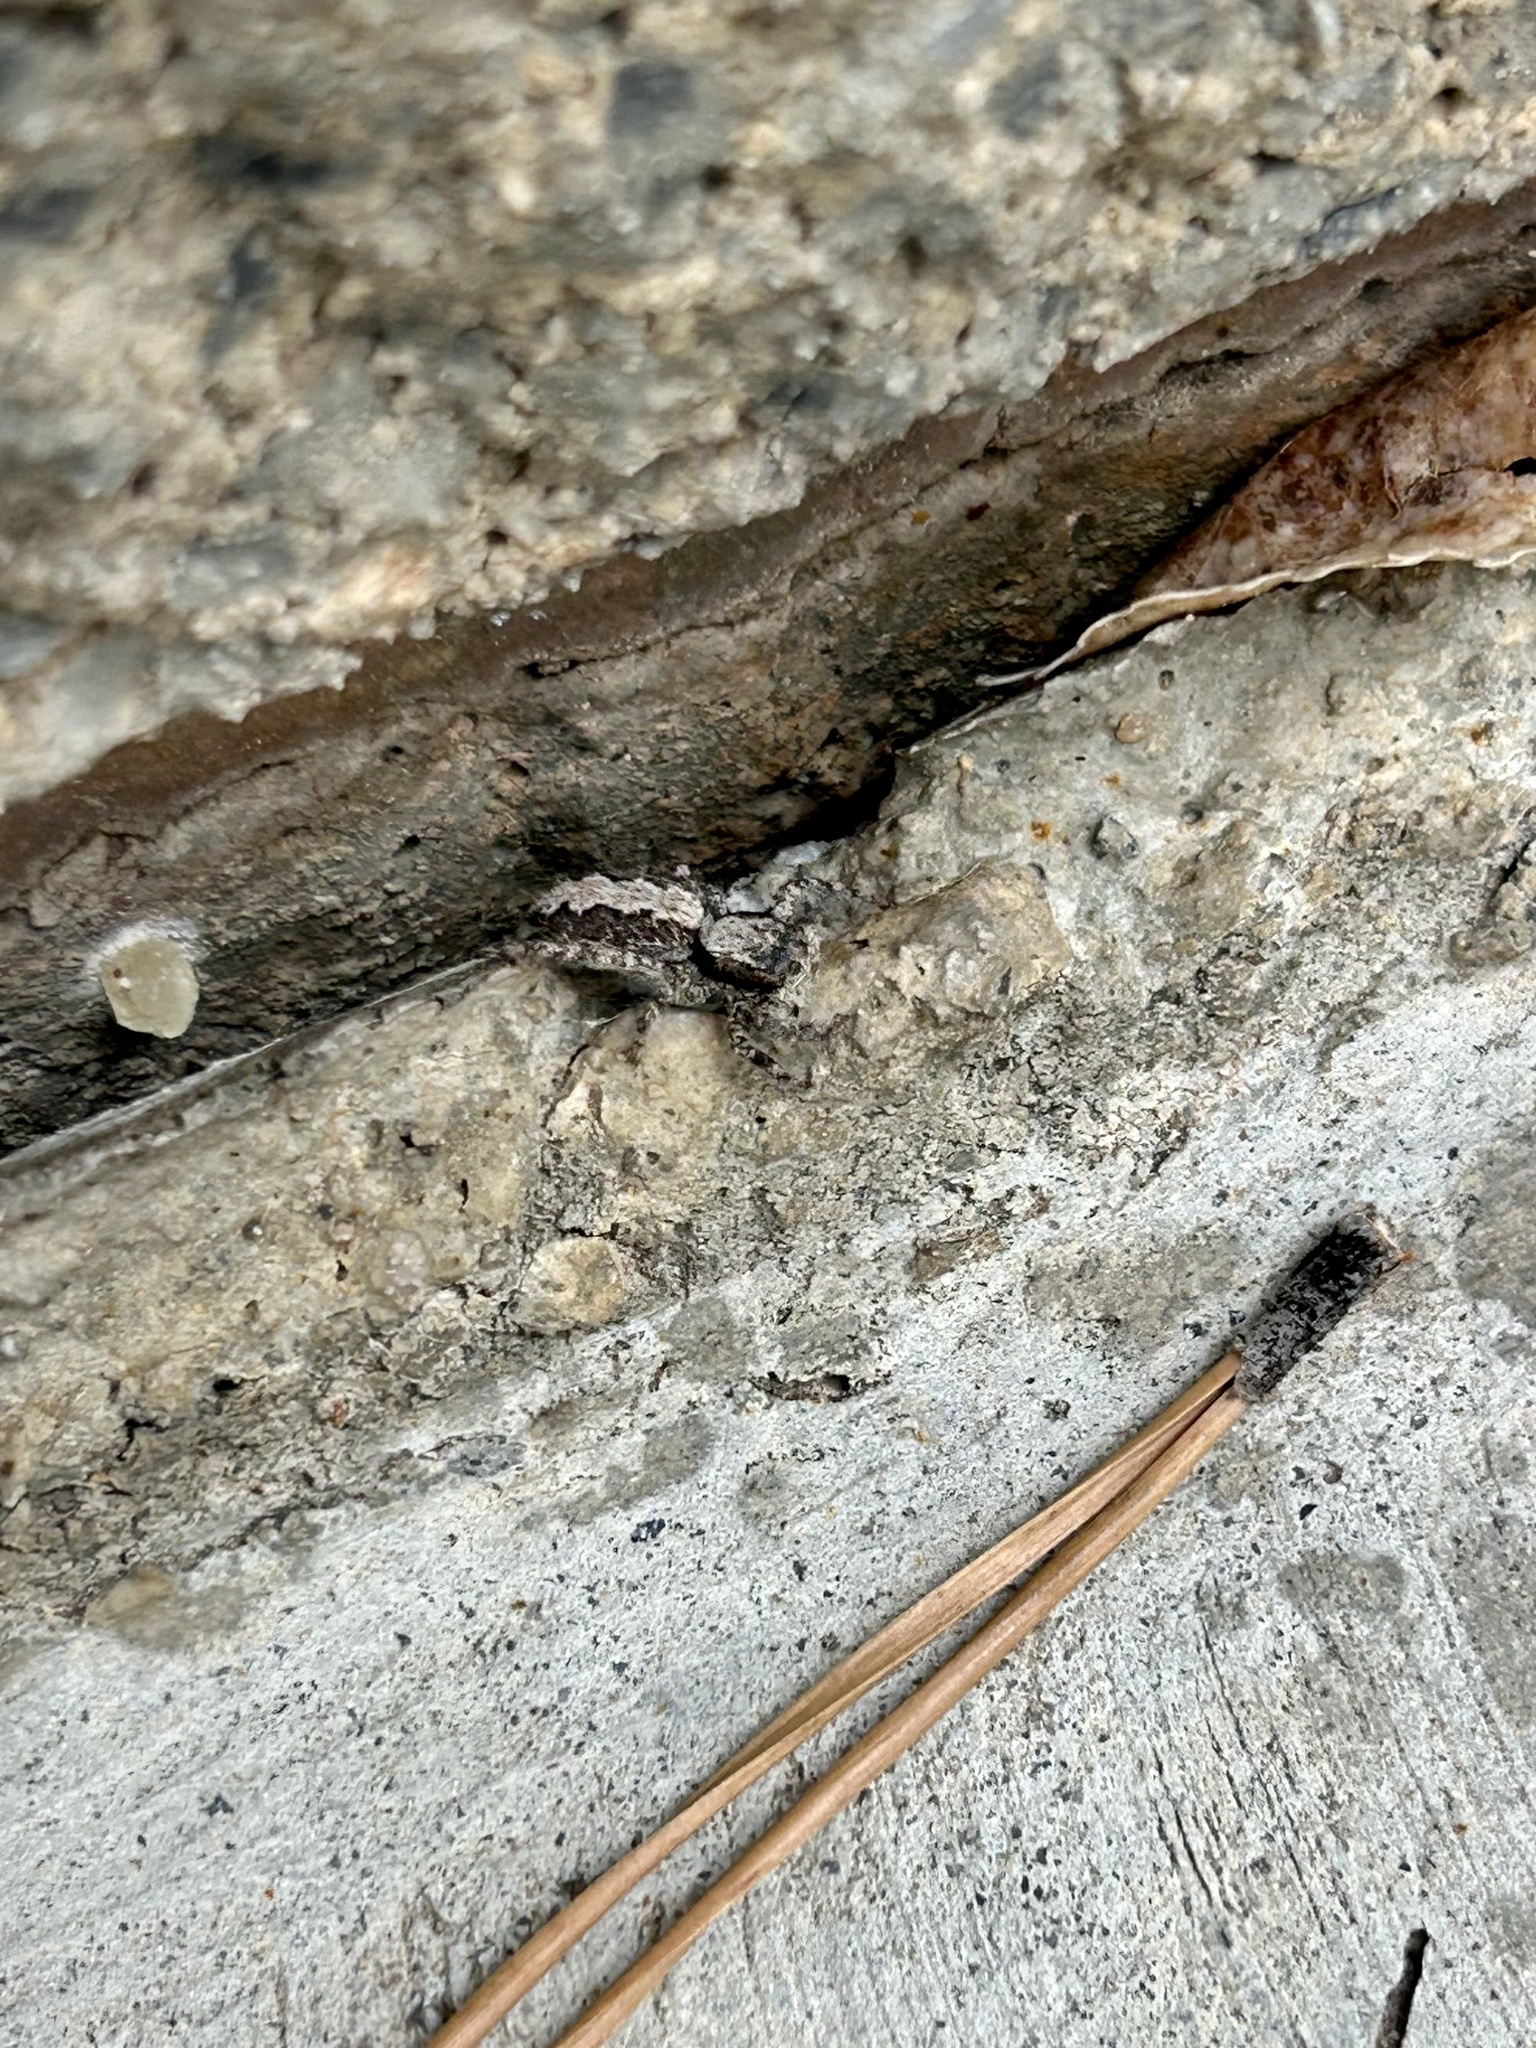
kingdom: Animalia
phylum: Arthropoda
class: Arachnida
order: Araneae
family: Salticidae
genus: Platycryptus
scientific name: Platycryptus californicus
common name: Jumping spiders
